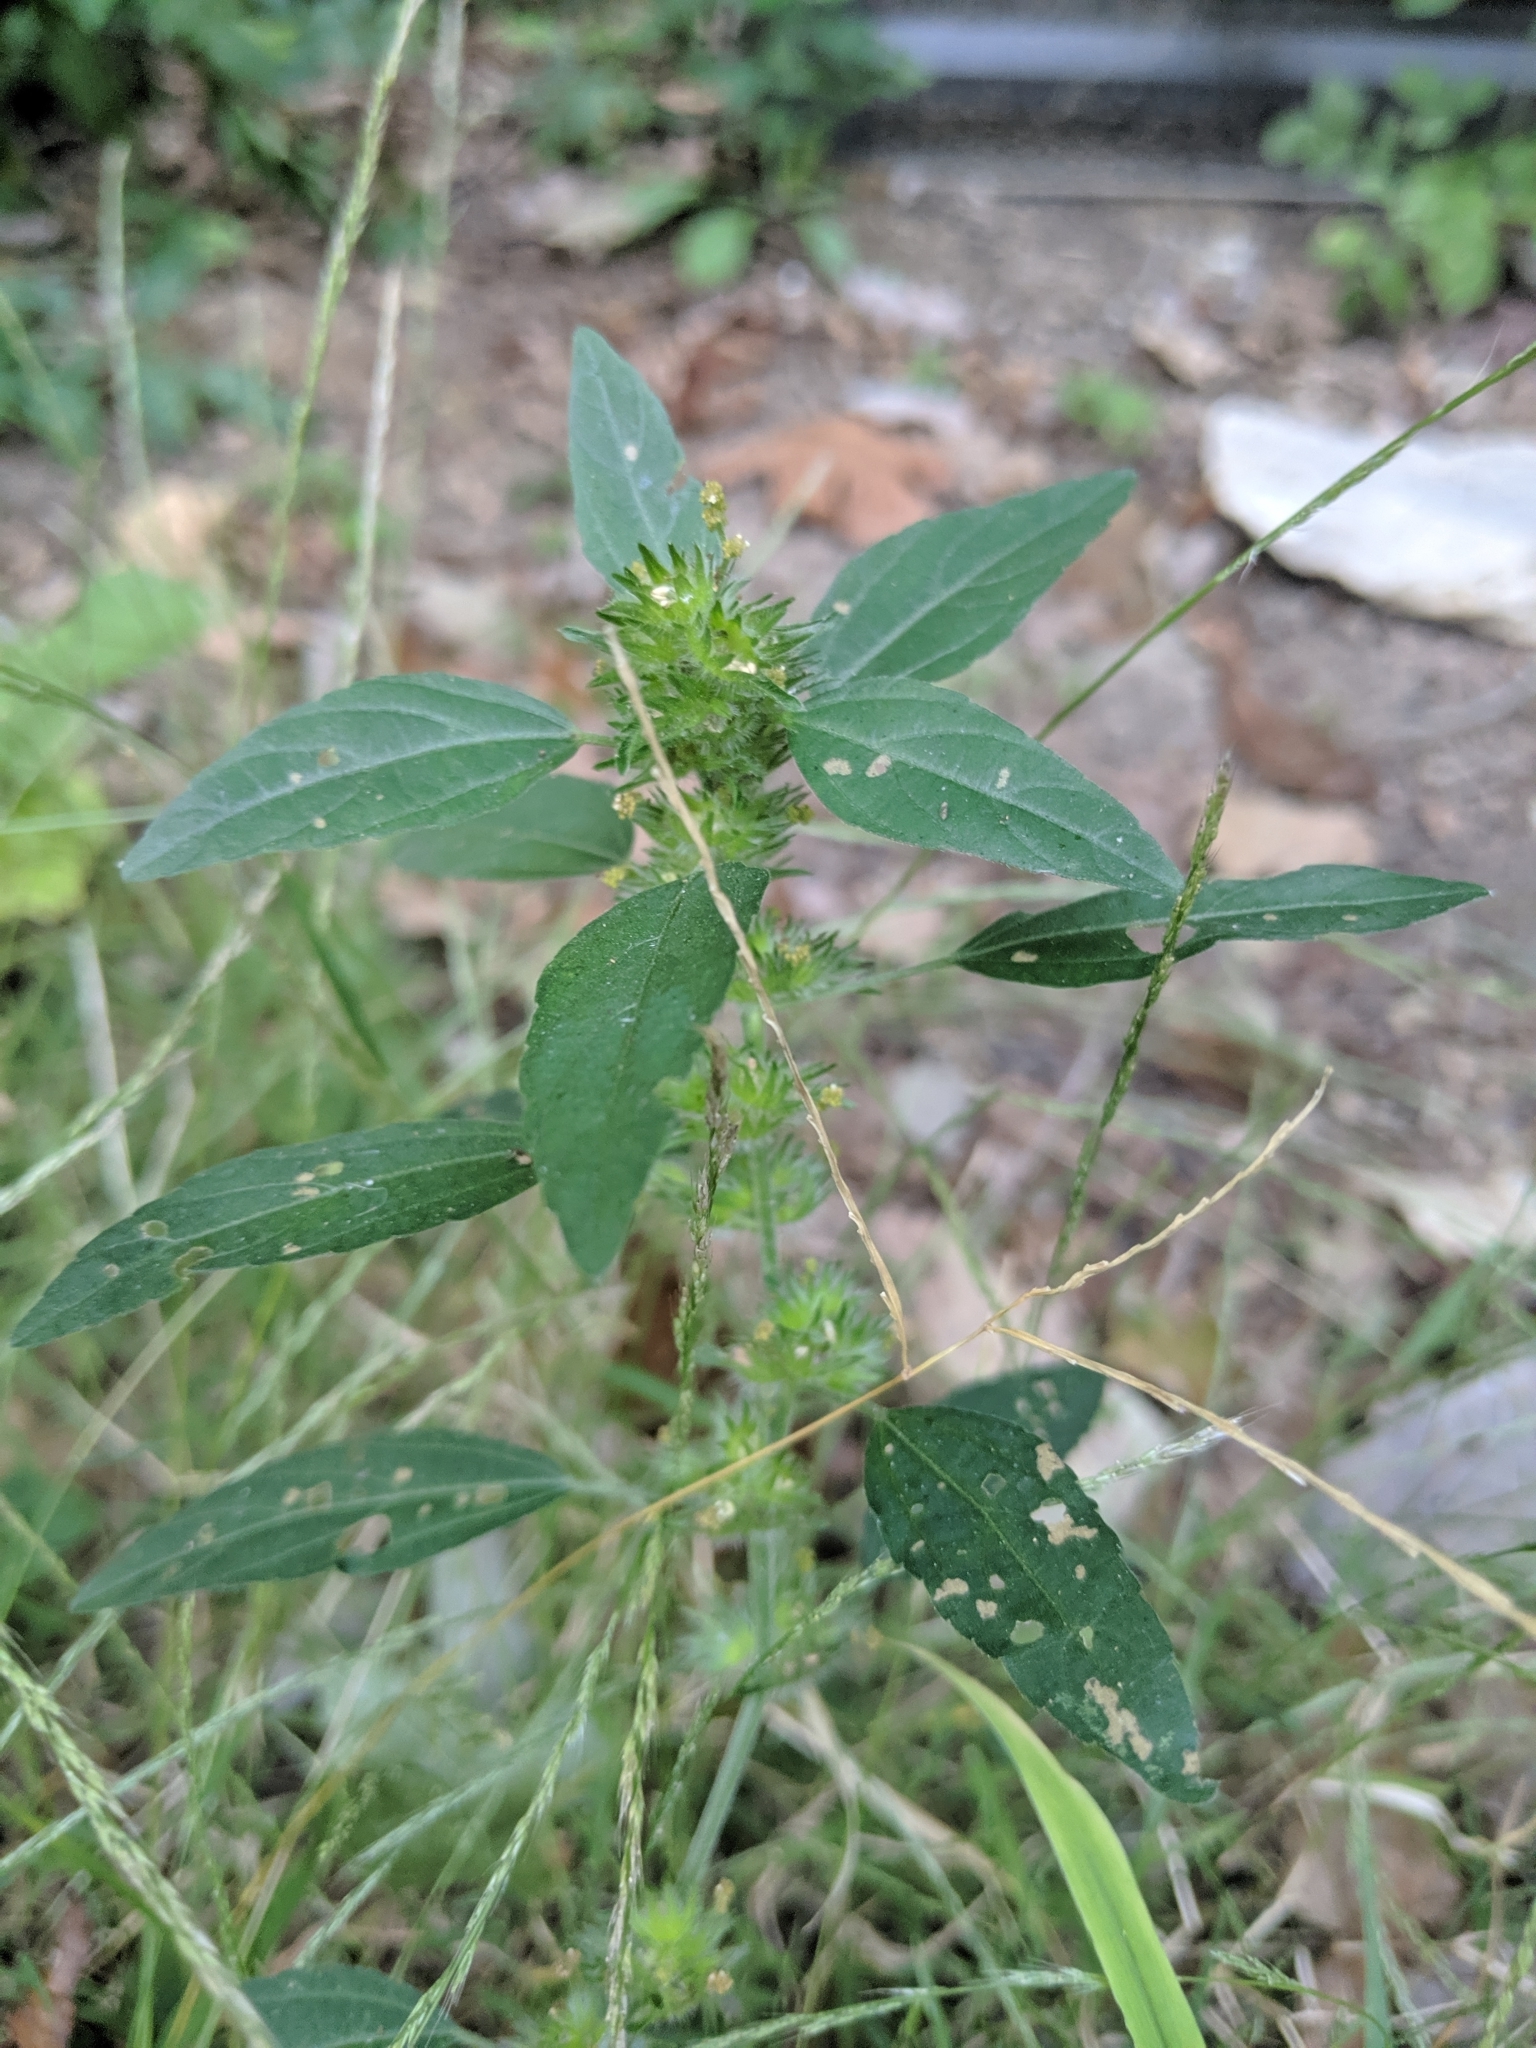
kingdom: Plantae
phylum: Tracheophyta
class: Magnoliopsida
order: Malpighiales
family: Euphorbiaceae
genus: Acalypha
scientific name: Acalypha virginica
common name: Virginia copperleaf
